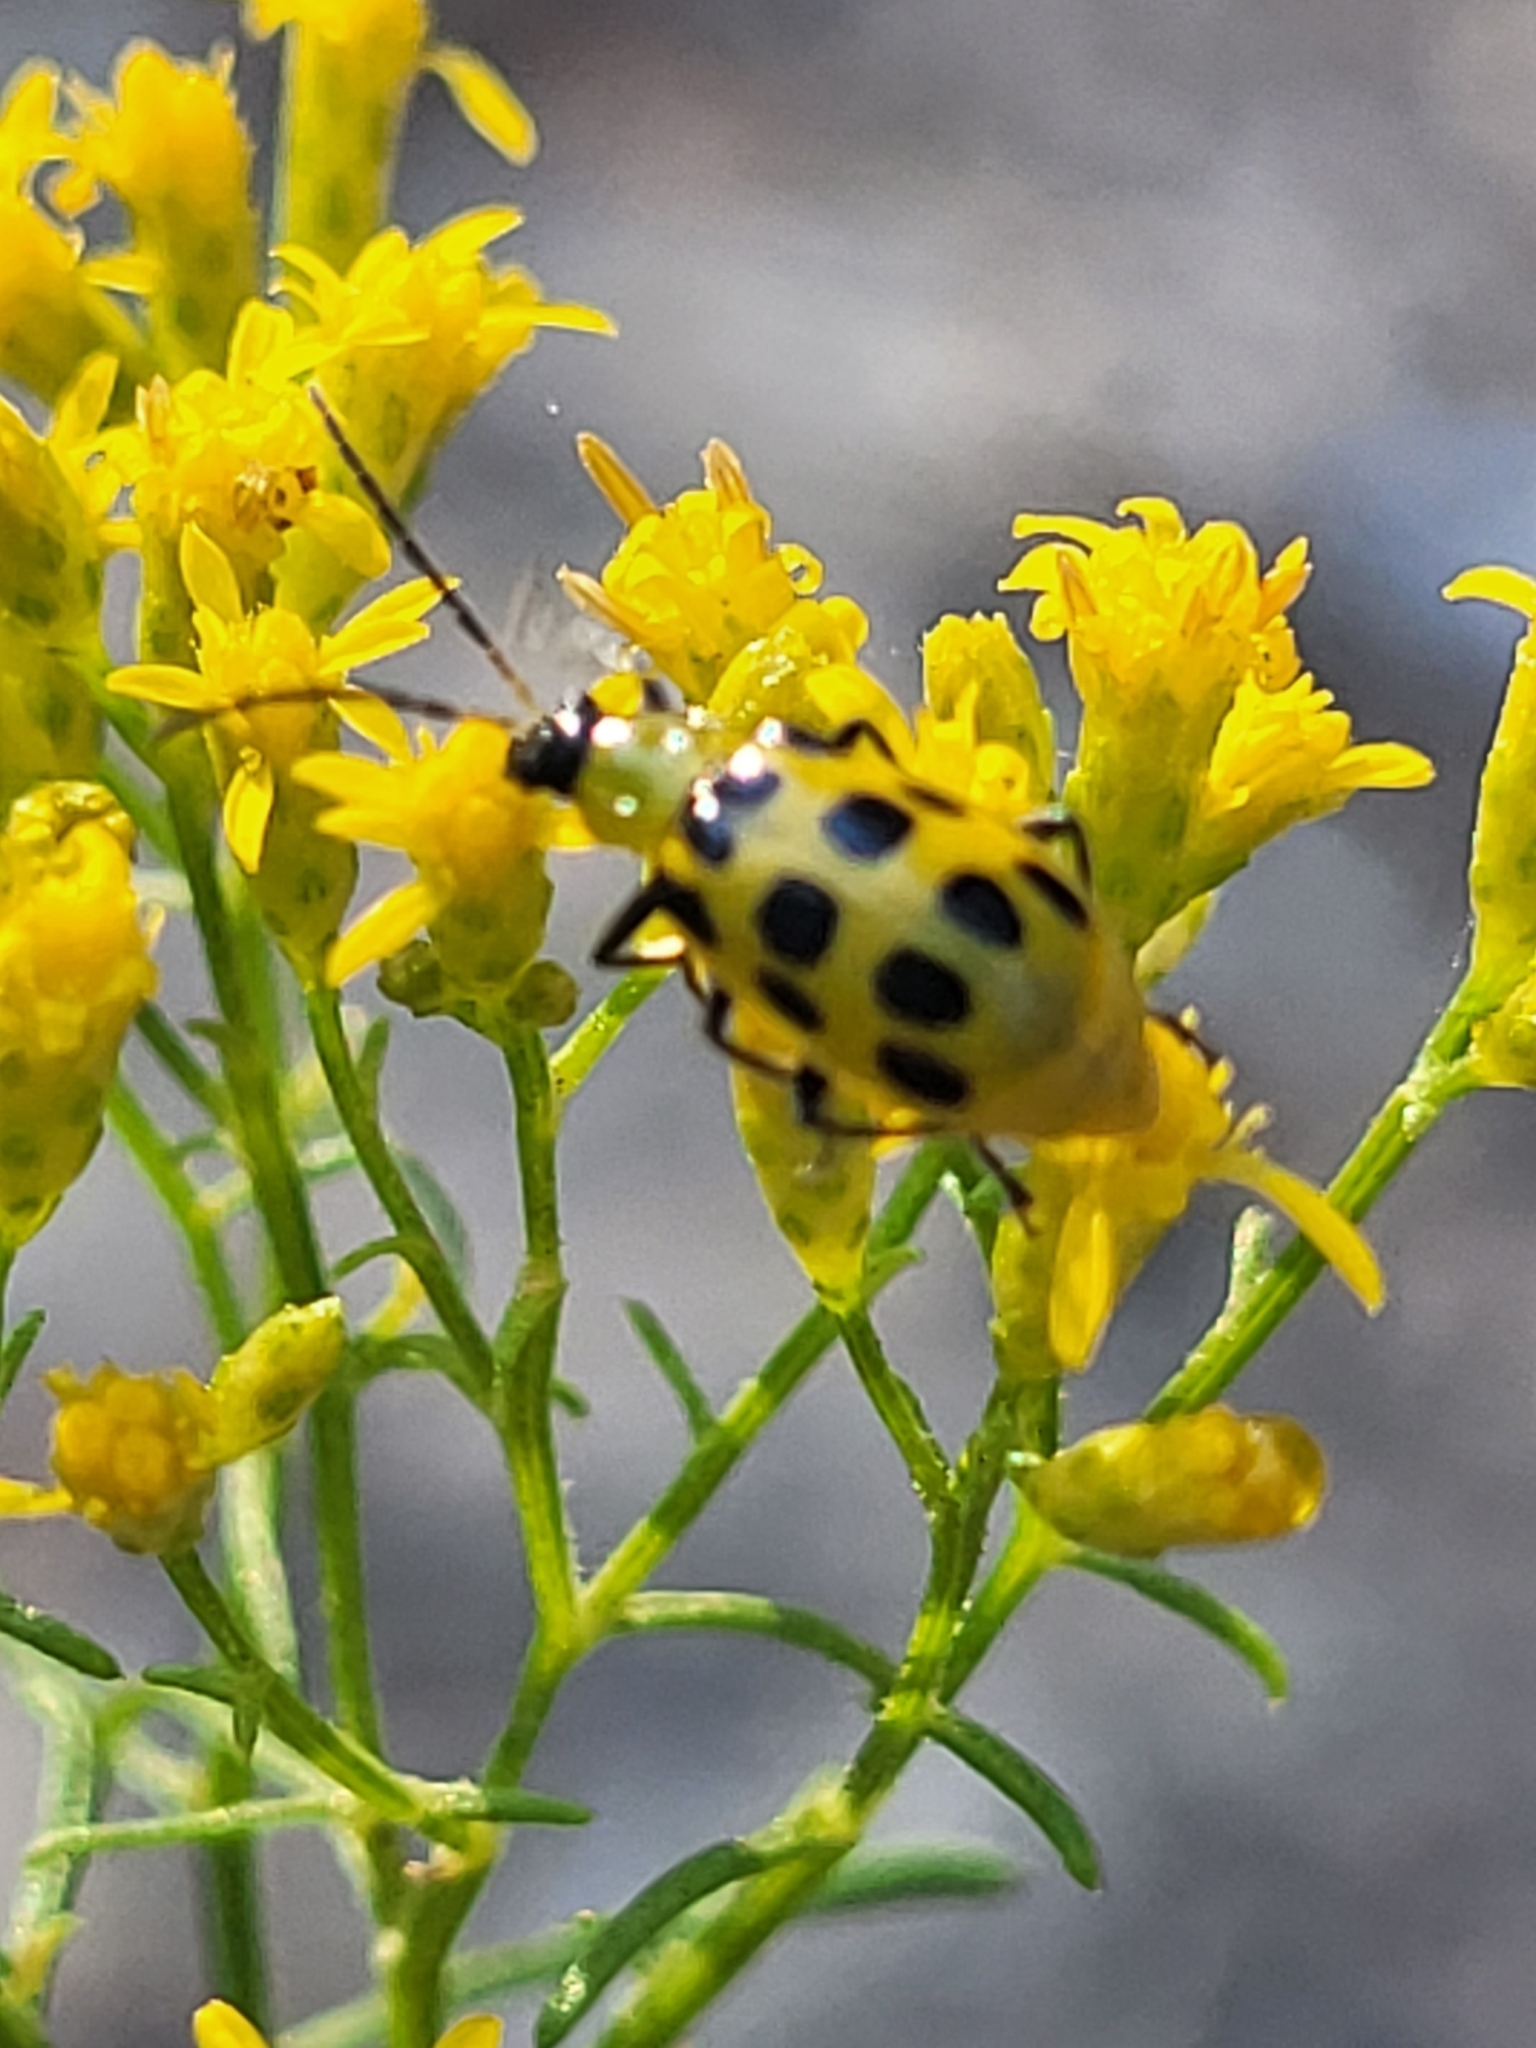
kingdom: Animalia
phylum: Arthropoda
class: Insecta
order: Coleoptera
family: Chrysomelidae
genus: Diabrotica
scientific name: Diabrotica undecimpunctata
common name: Spotted cucumber beetle
